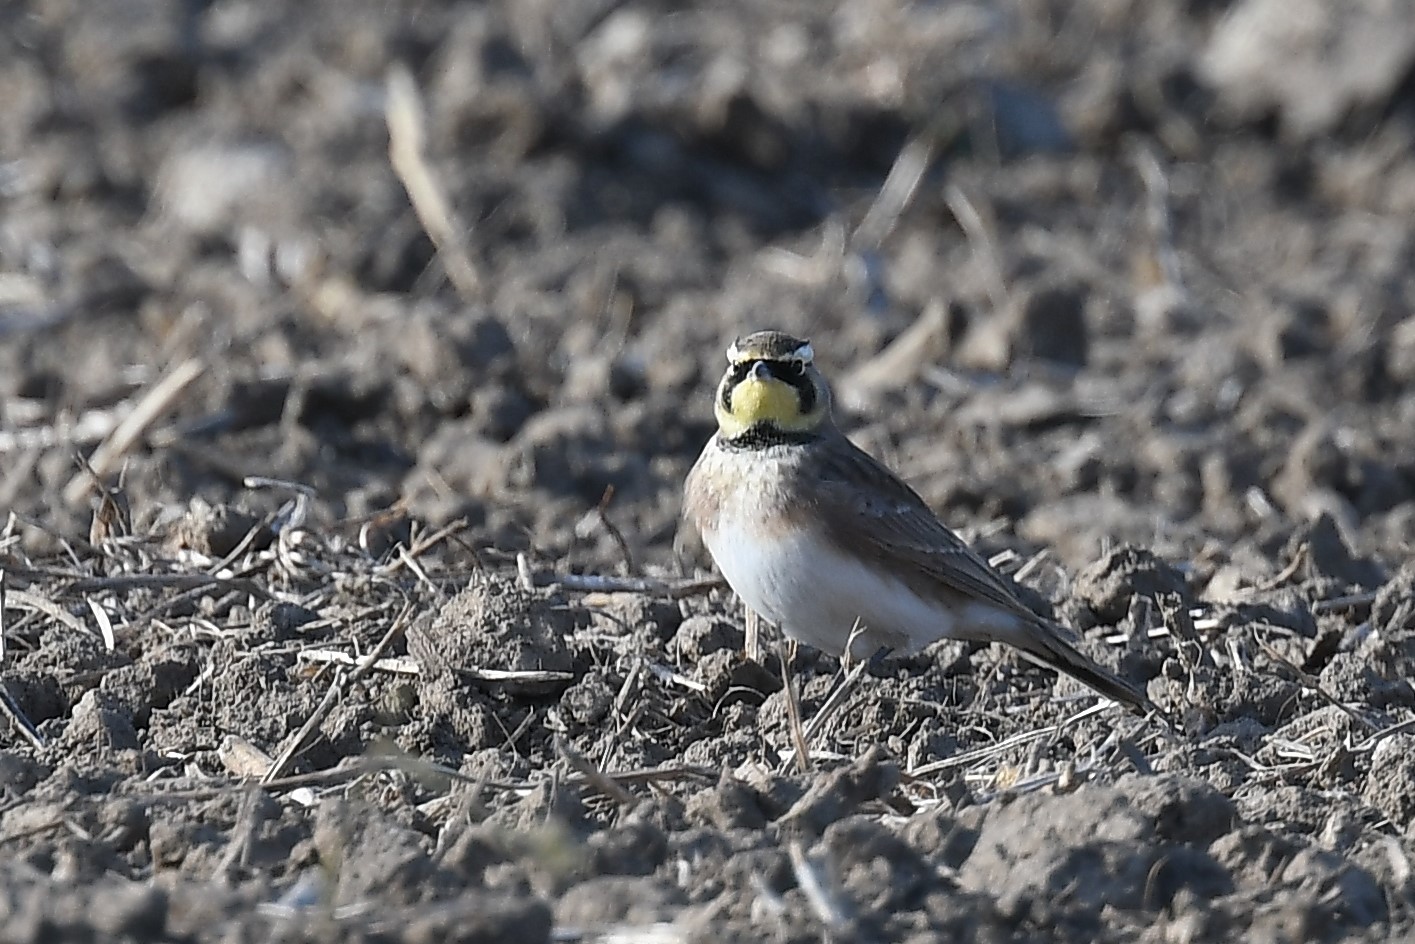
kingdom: Animalia
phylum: Chordata
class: Aves
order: Passeriformes
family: Alaudidae
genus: Eremophila
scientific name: Eremophila alpestris
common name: Horned lark
